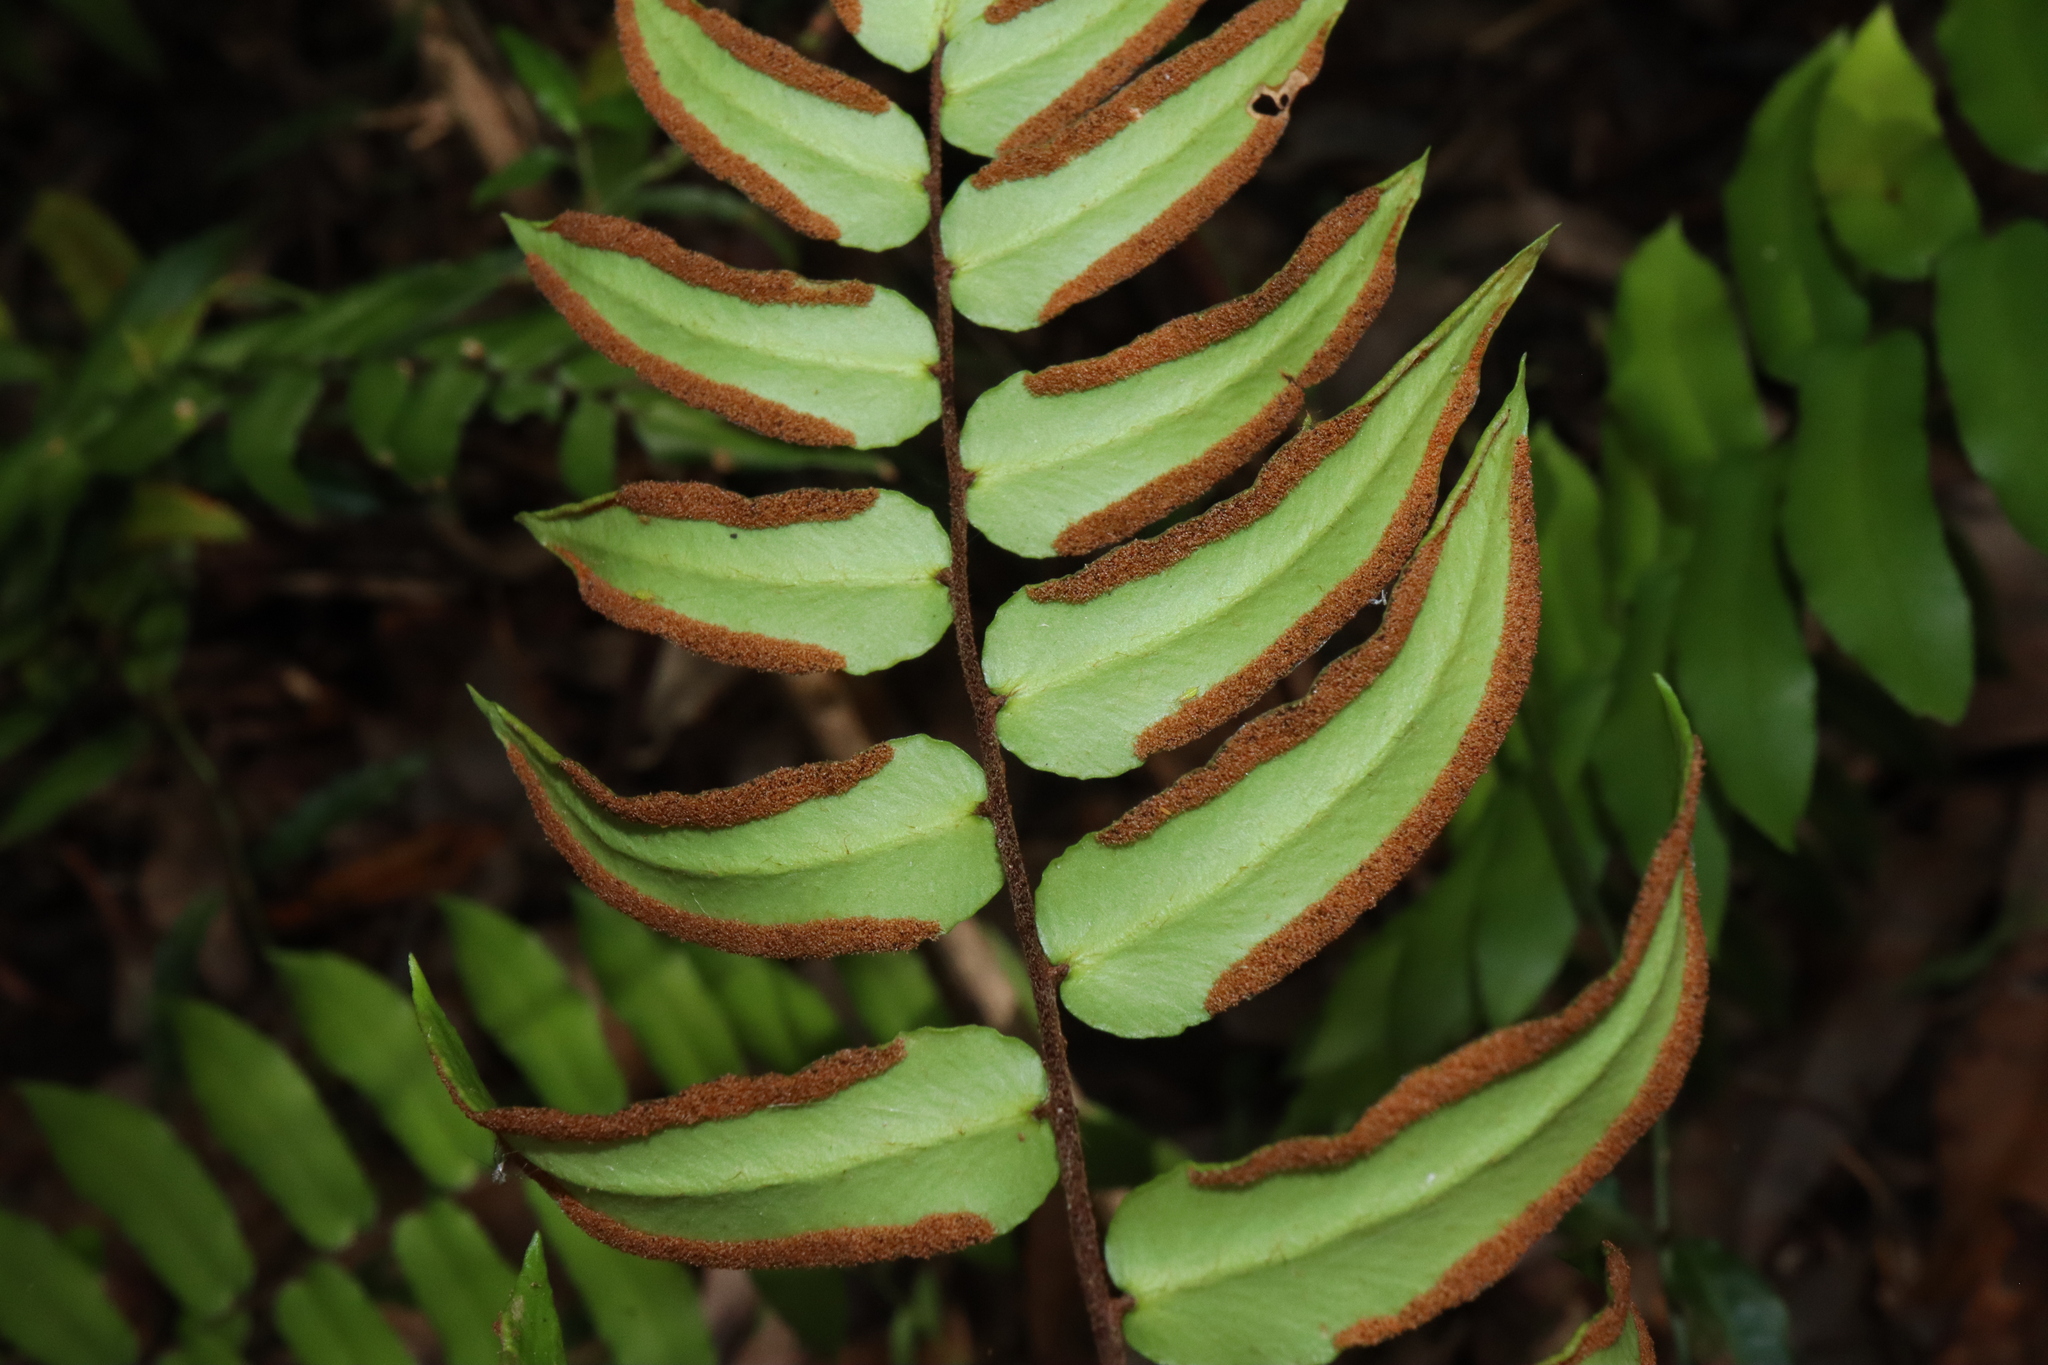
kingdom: Plantae
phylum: Tracheophyta
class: Polypodiopsida
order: Polypodiales
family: Pteridaceae
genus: Pellaea
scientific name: Pellaea falcata
